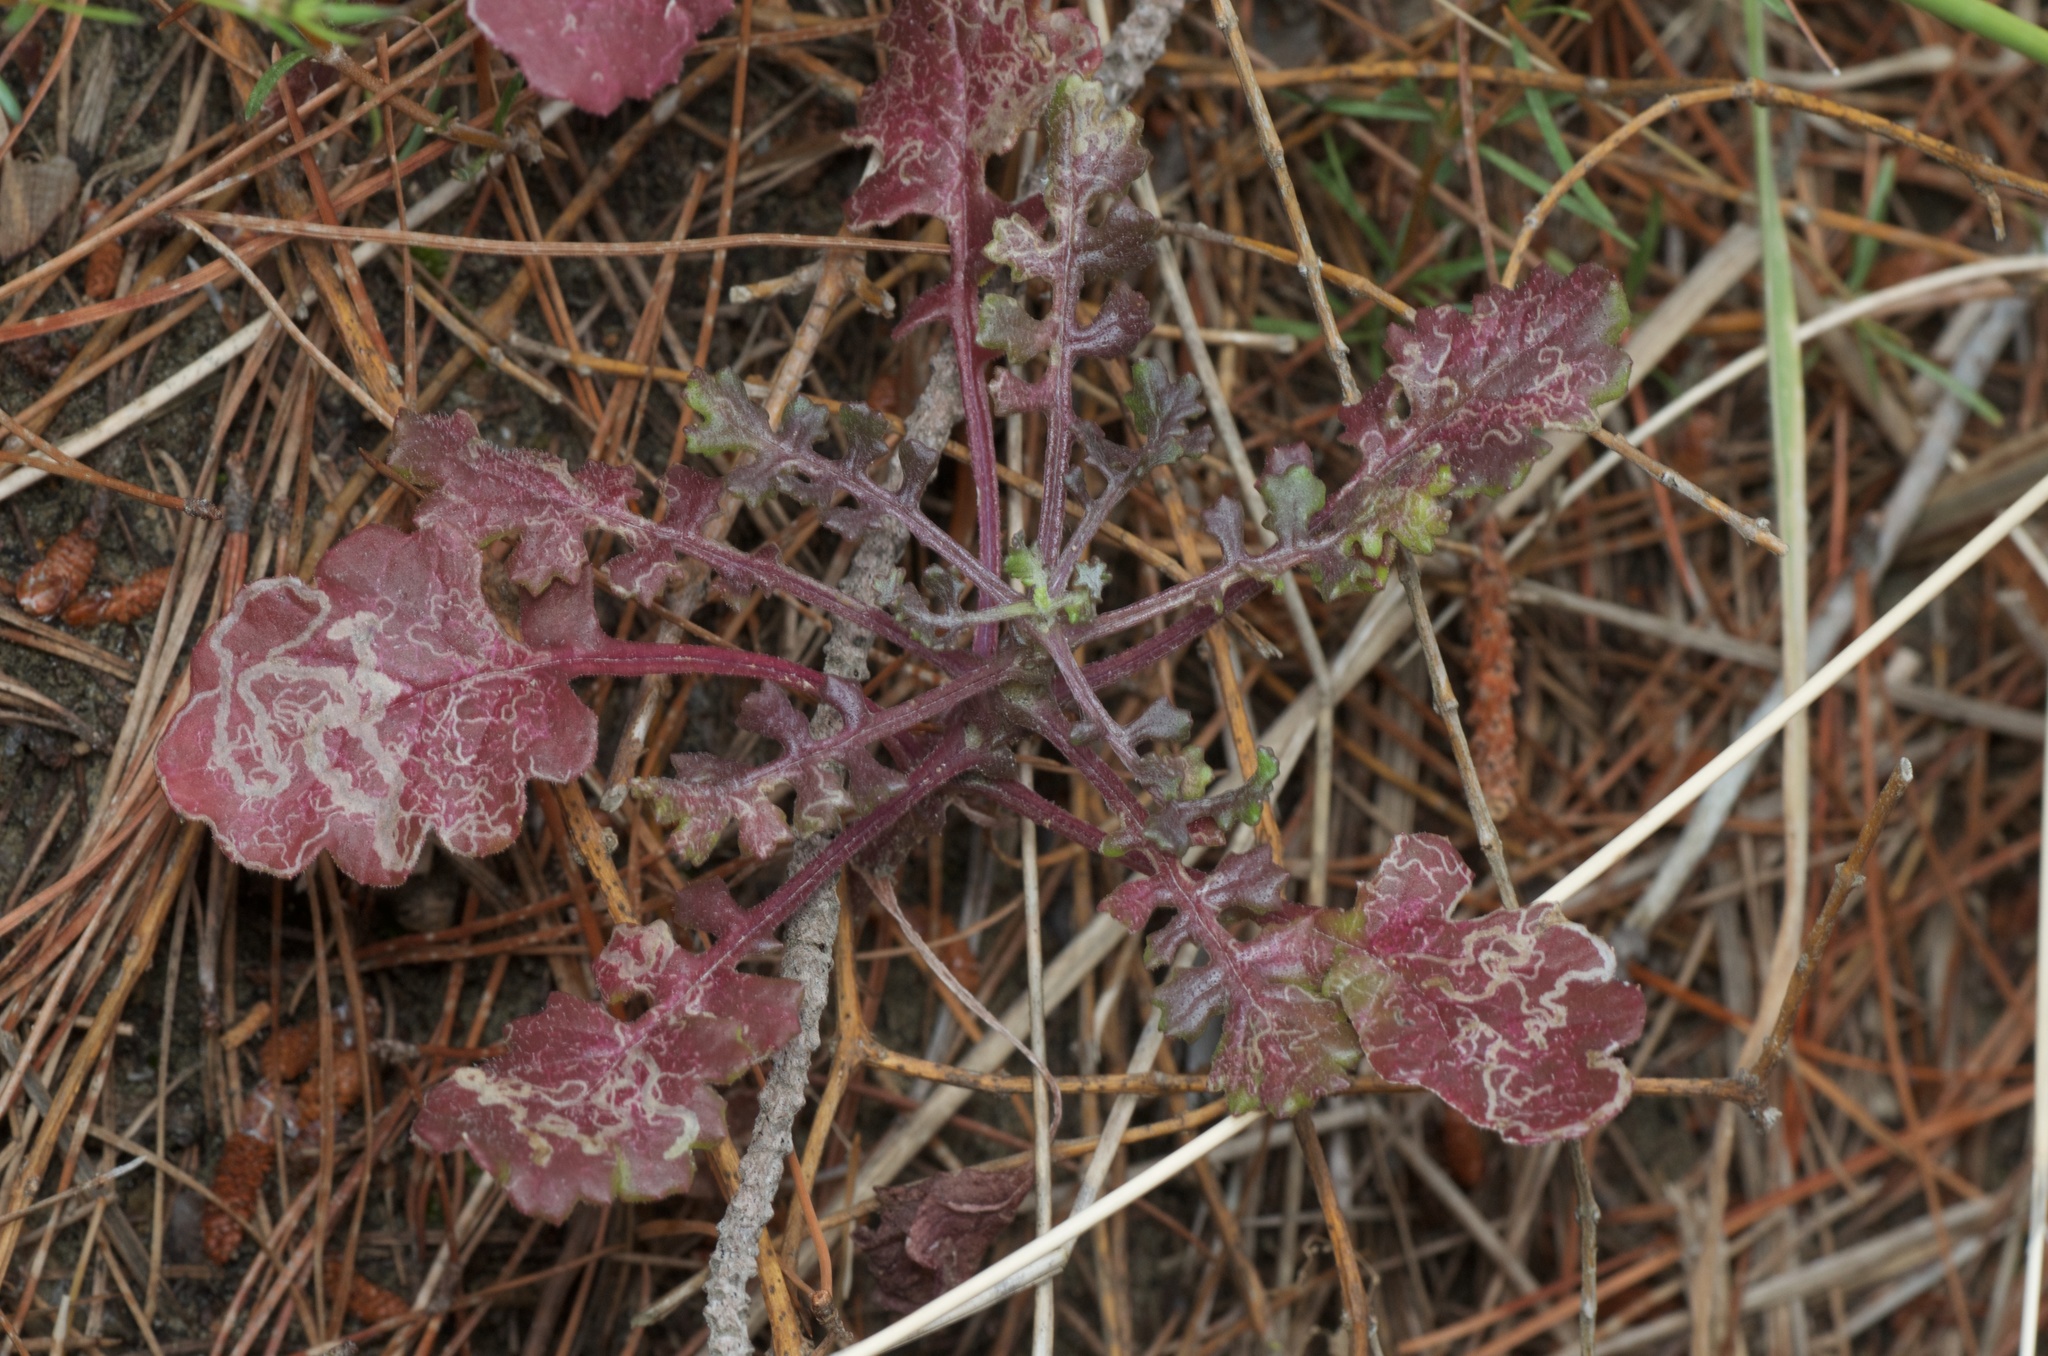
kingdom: Plantae
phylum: Tracheophyta
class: Magnoliopsida
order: Asterales
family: Asteraceae
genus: Senecio
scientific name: Senecio elegans
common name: Purple groundsel
